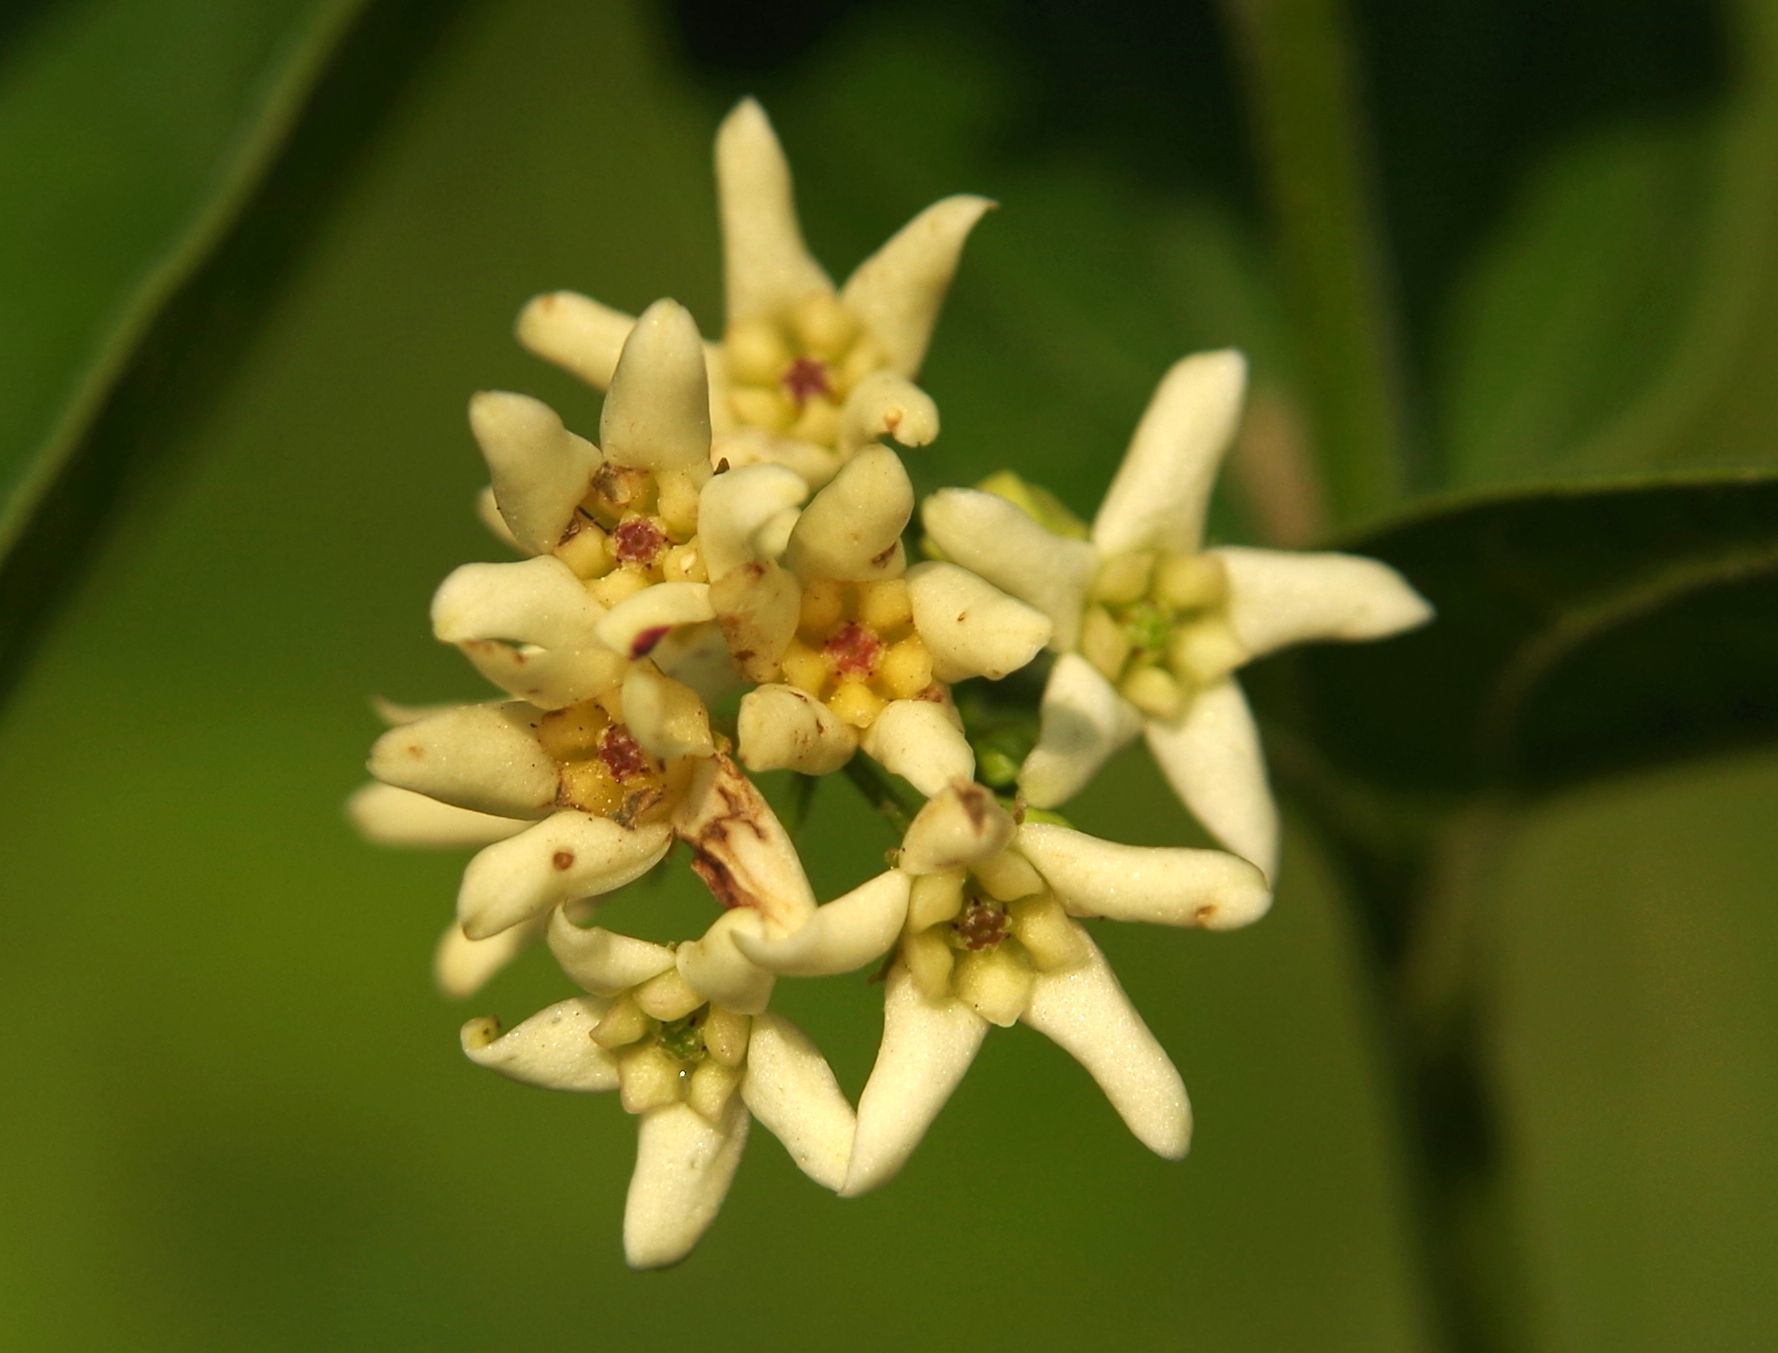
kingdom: Plantae
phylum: Tracheophyta
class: Magnoliopsida
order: Gentianales
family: Apocynaceae
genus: Vincetoxicum
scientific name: Vincetoxicum hirundinaria
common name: White swallowwort
